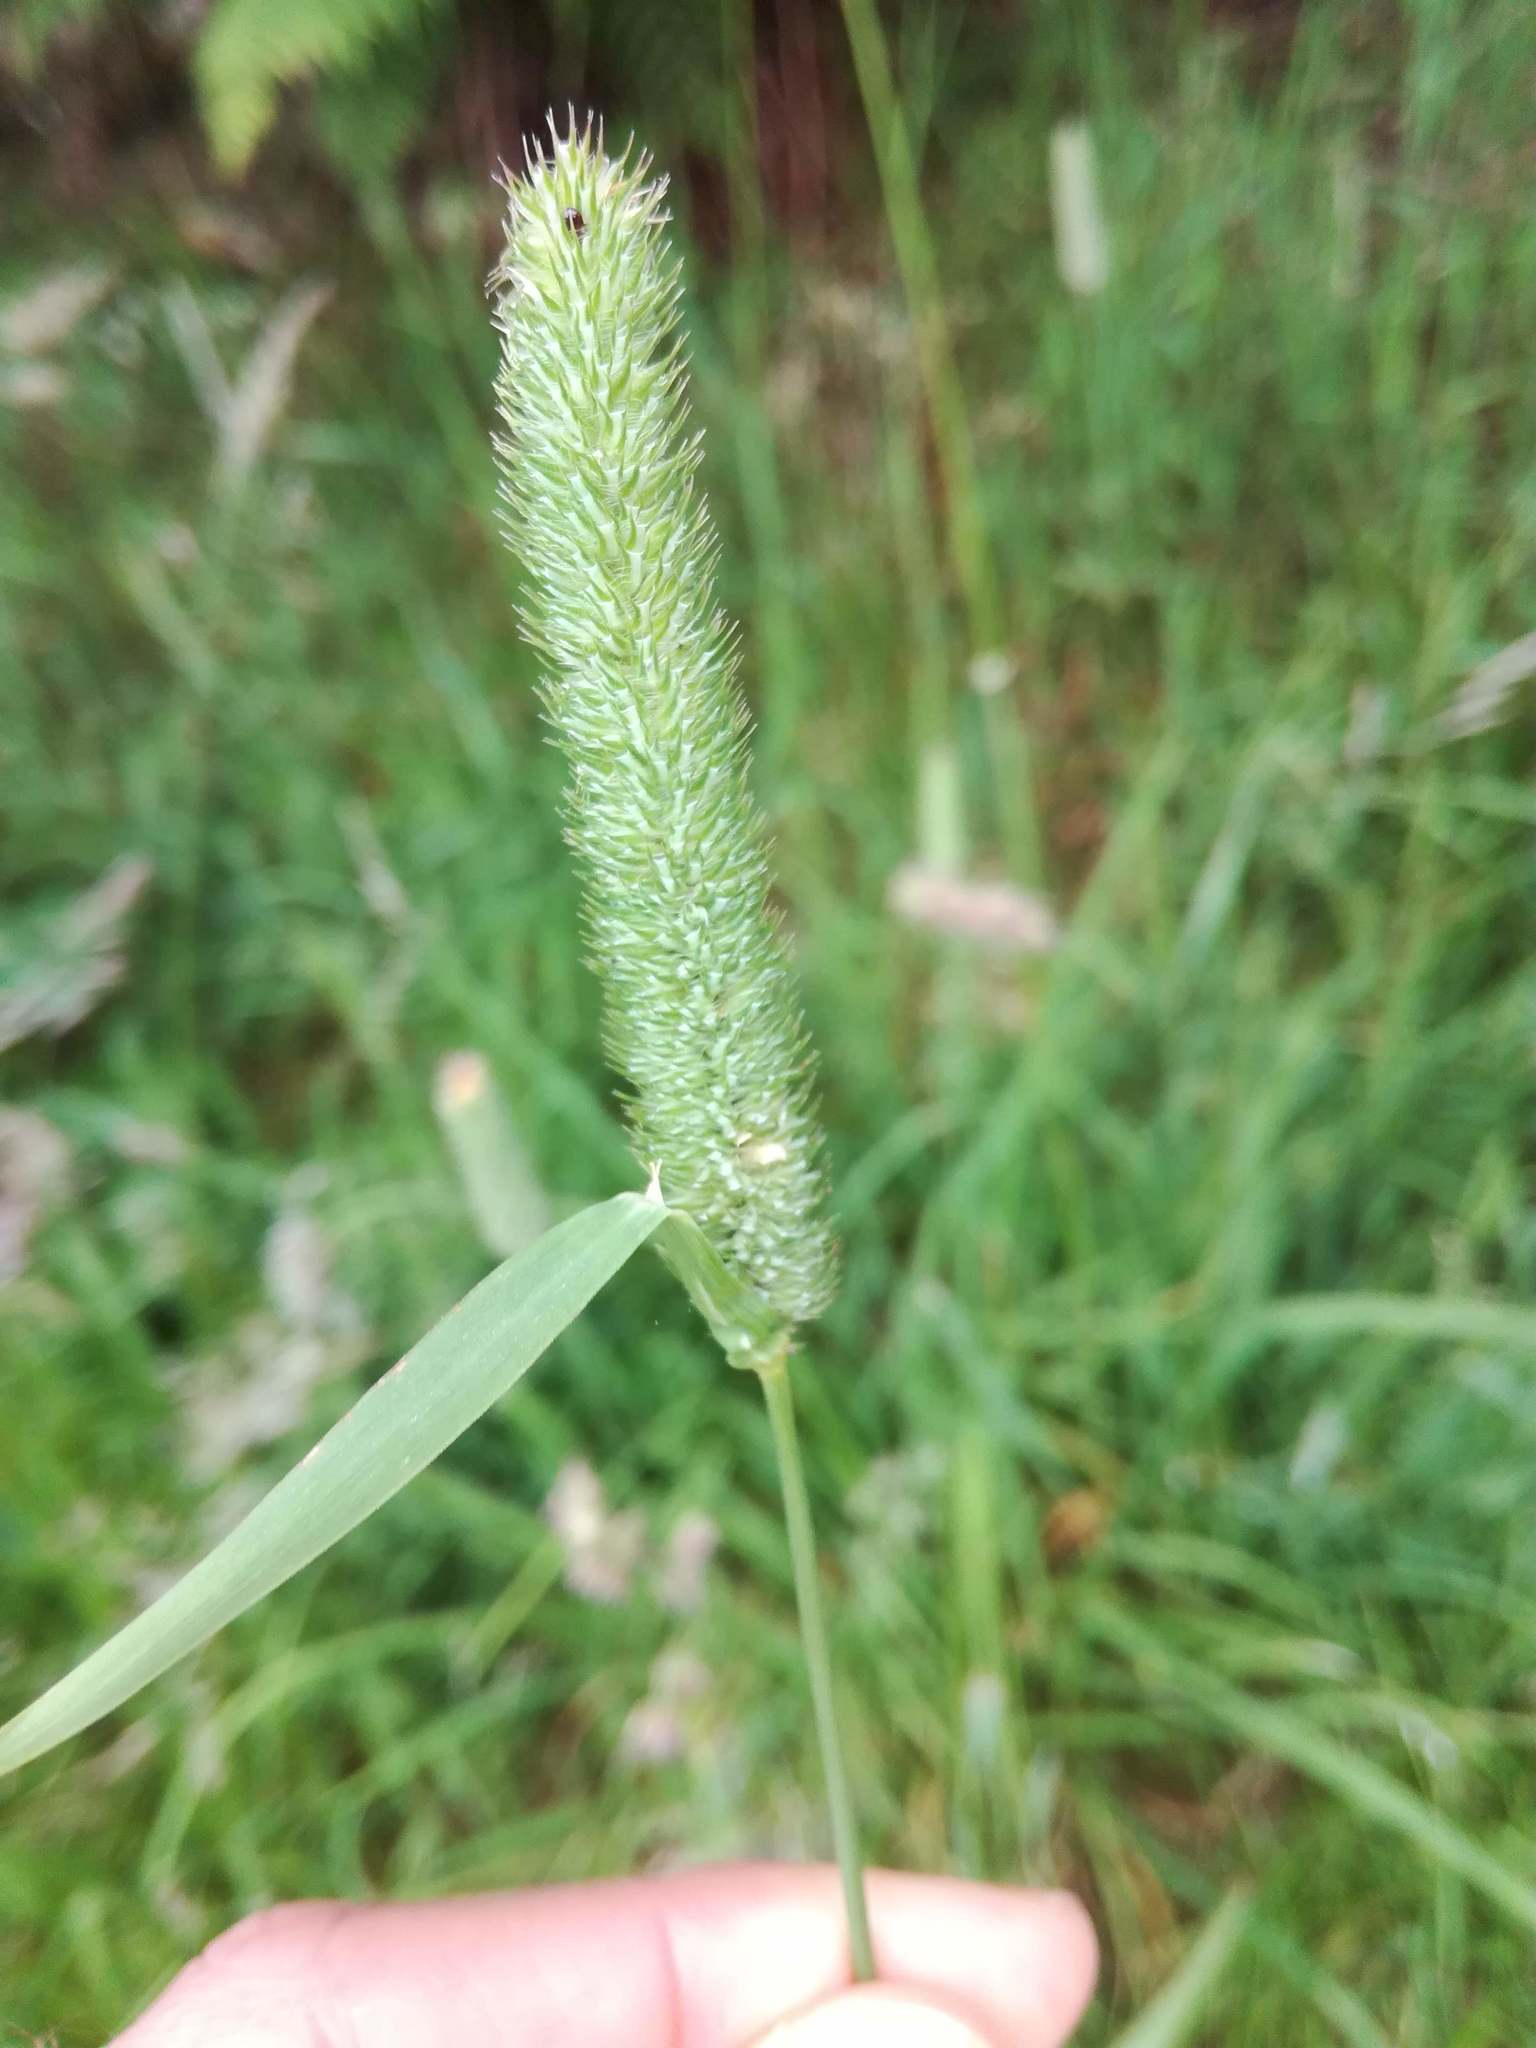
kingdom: Plantae
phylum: Tracheophyta
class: Liliopsida
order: Poales
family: Poaceae
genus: Phleum
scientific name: Phleum pratense
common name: Timothy grass
